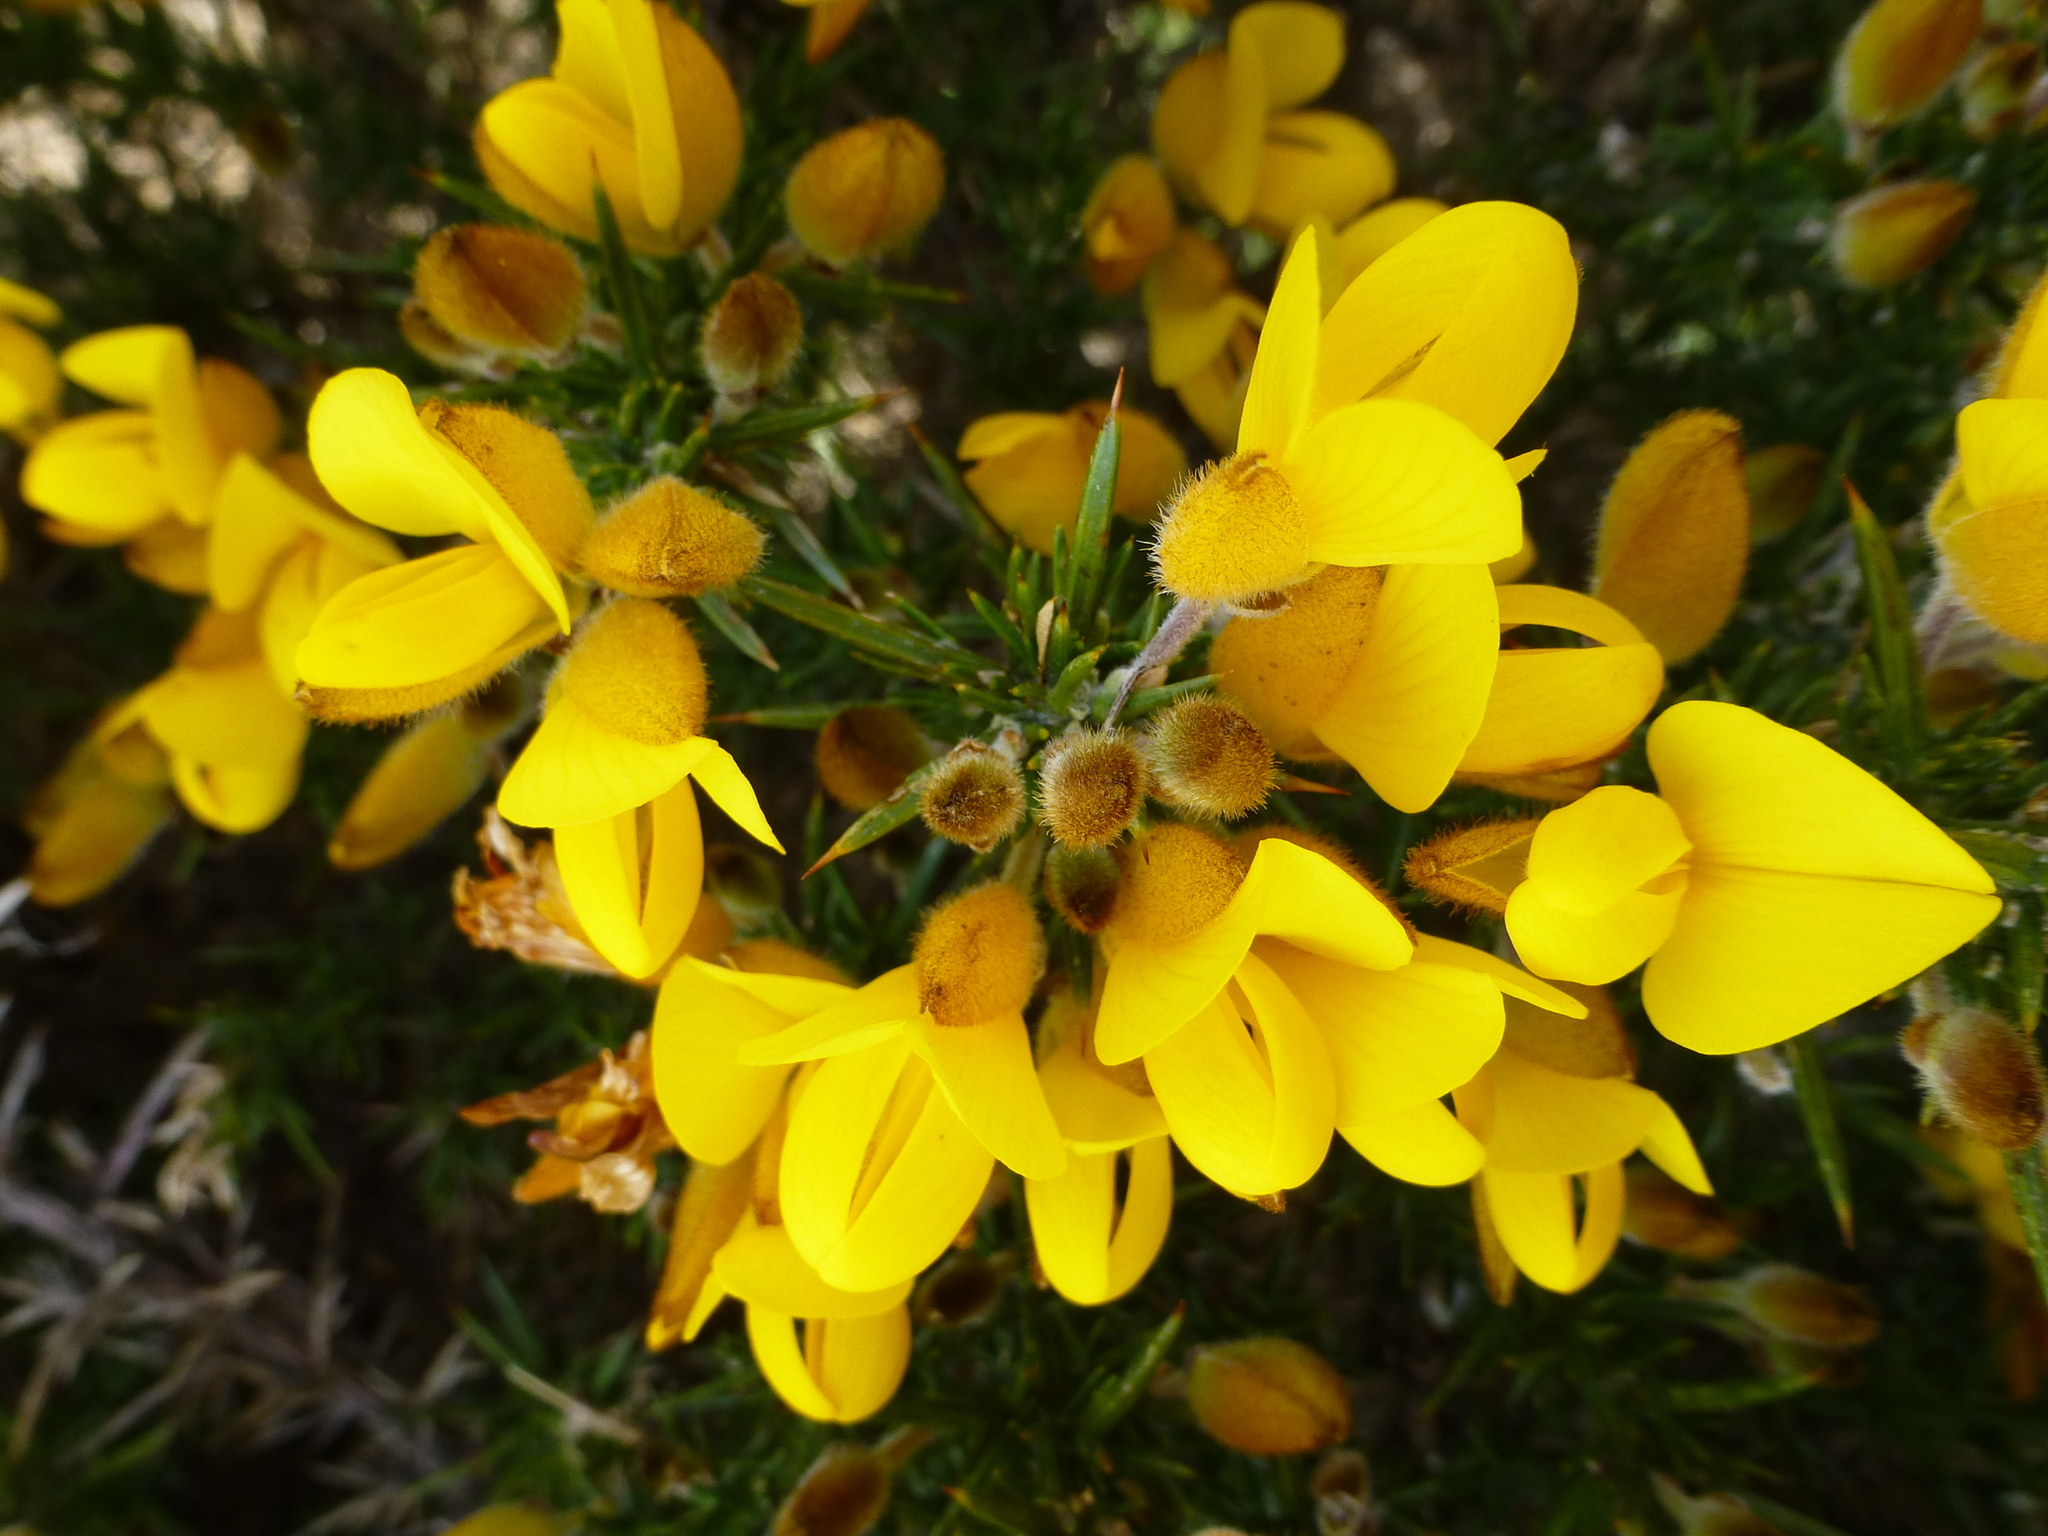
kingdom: Plantae
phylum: Tracheophyta
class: Magnoliopsida
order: Fabales
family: Fabaceae
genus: Ulex
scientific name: Ulex europaeus
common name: Common gorse
